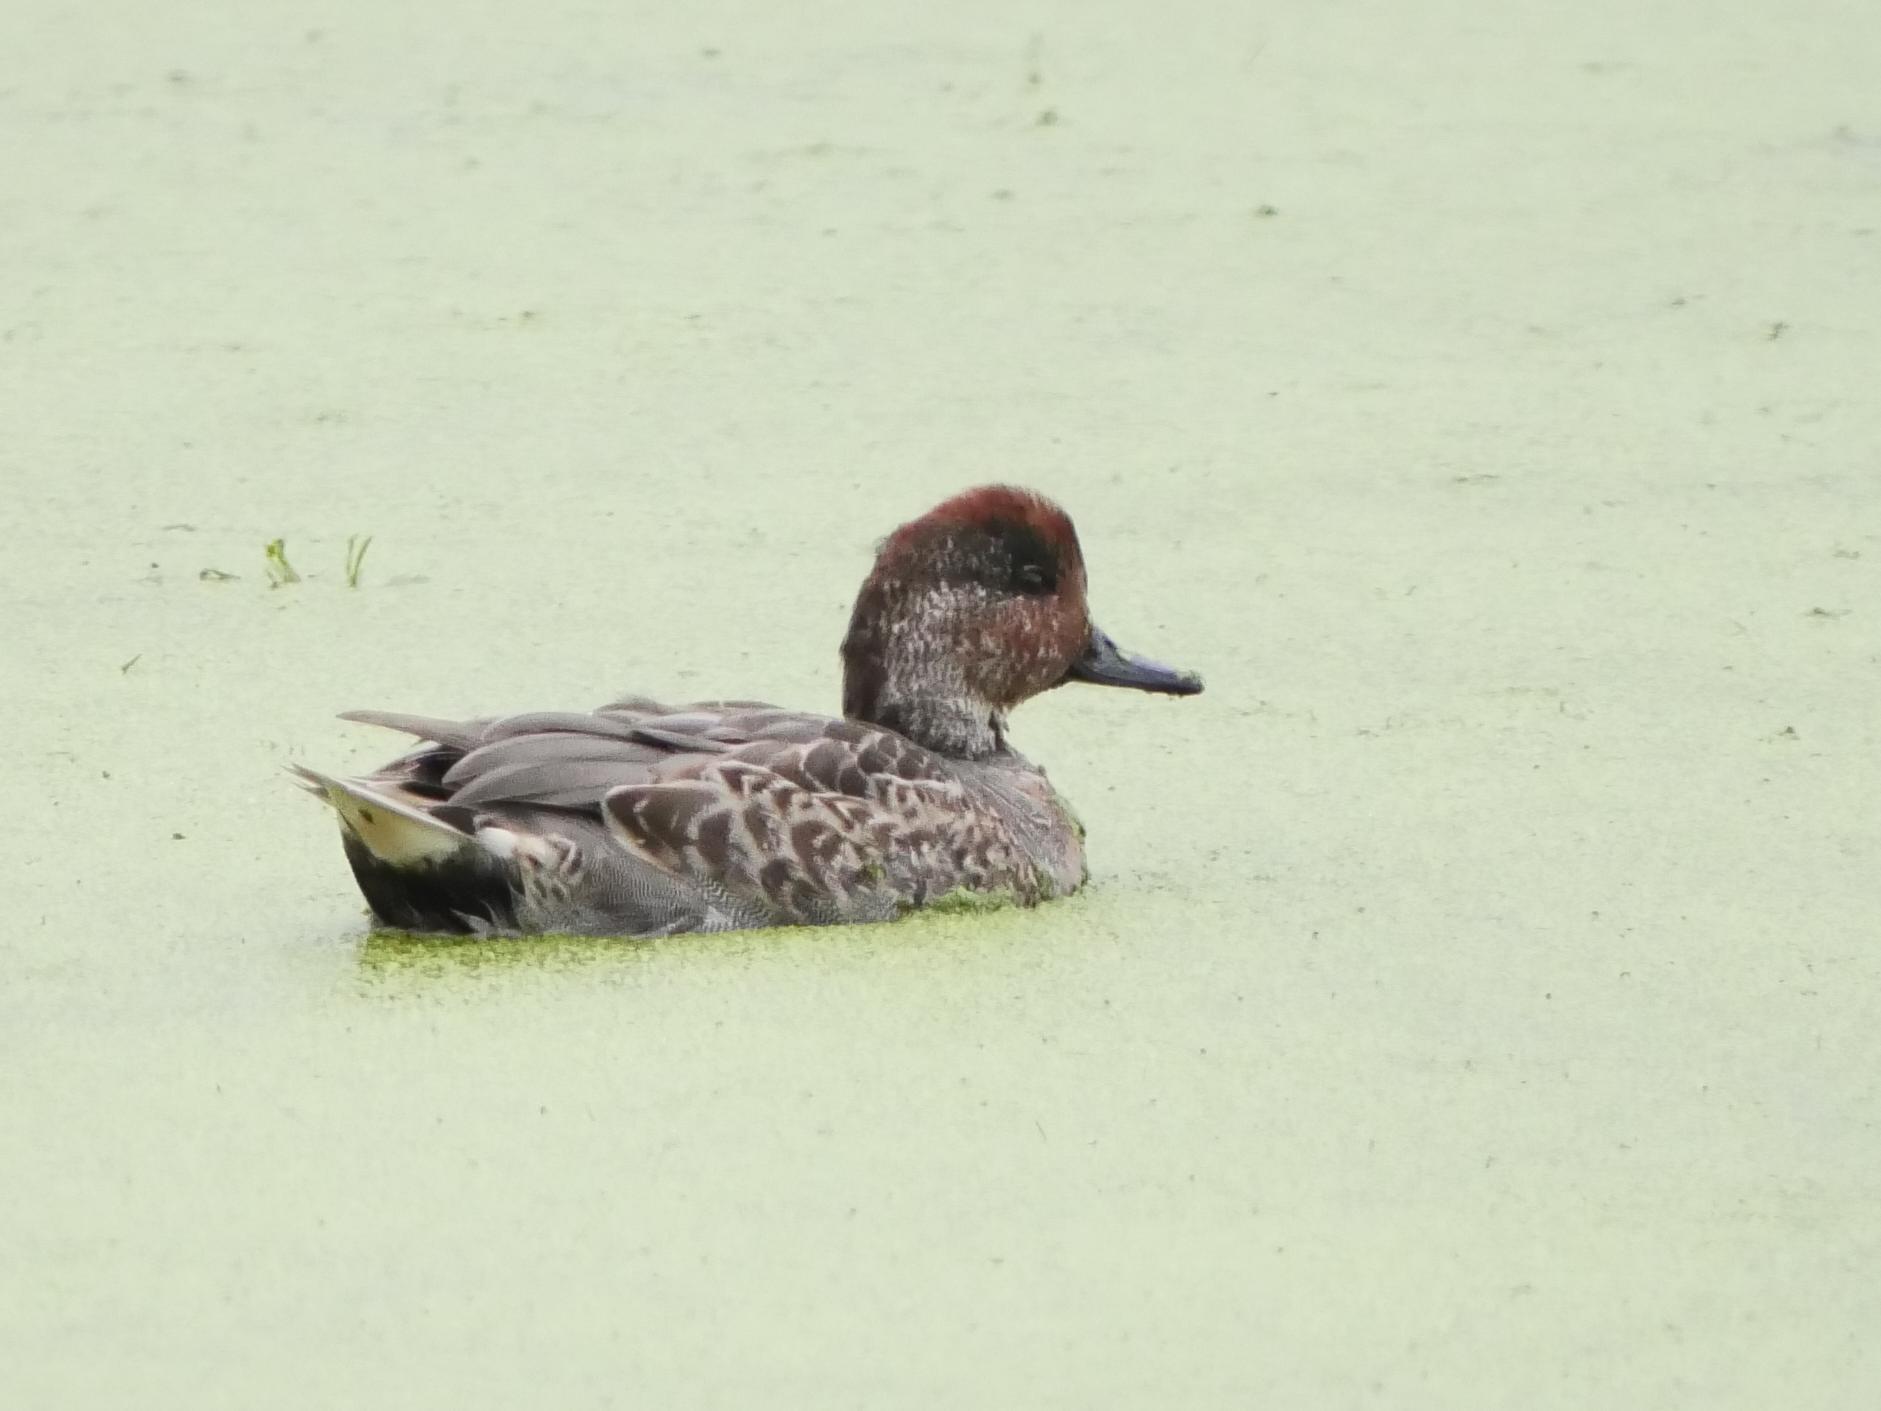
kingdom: Animalia
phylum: Chordata
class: Aves
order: Anseriformes
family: Anatidae
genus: Anas
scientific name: Anas crecca
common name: Eurasian teal
